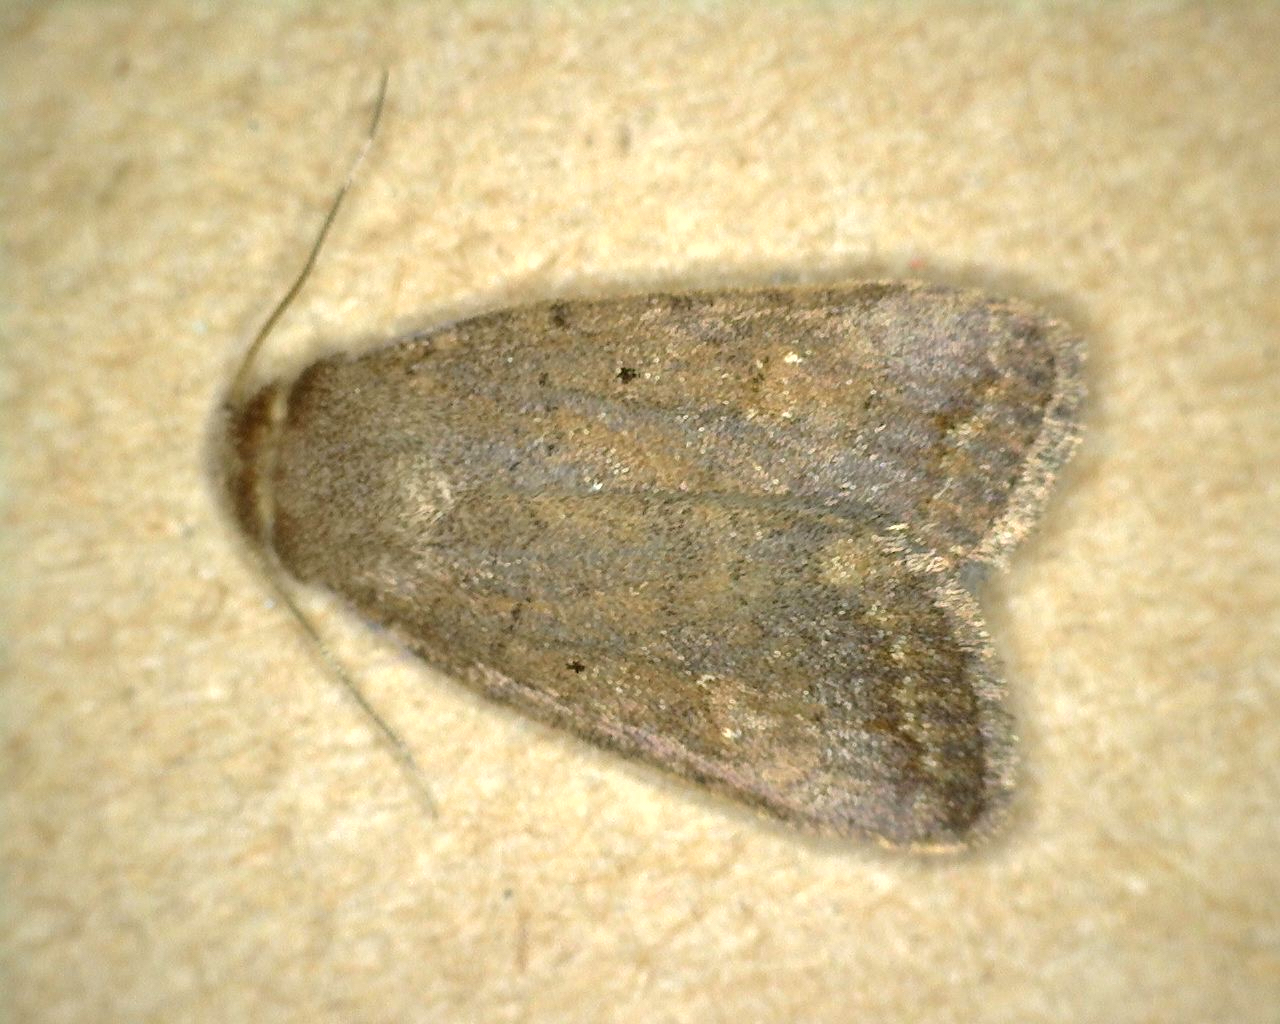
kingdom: Animalia
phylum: Arthropoda
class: Insecta
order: Lepidoptera
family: Noctuidae
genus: Athetis
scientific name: Athetis tarda
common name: Slowpoke moth
